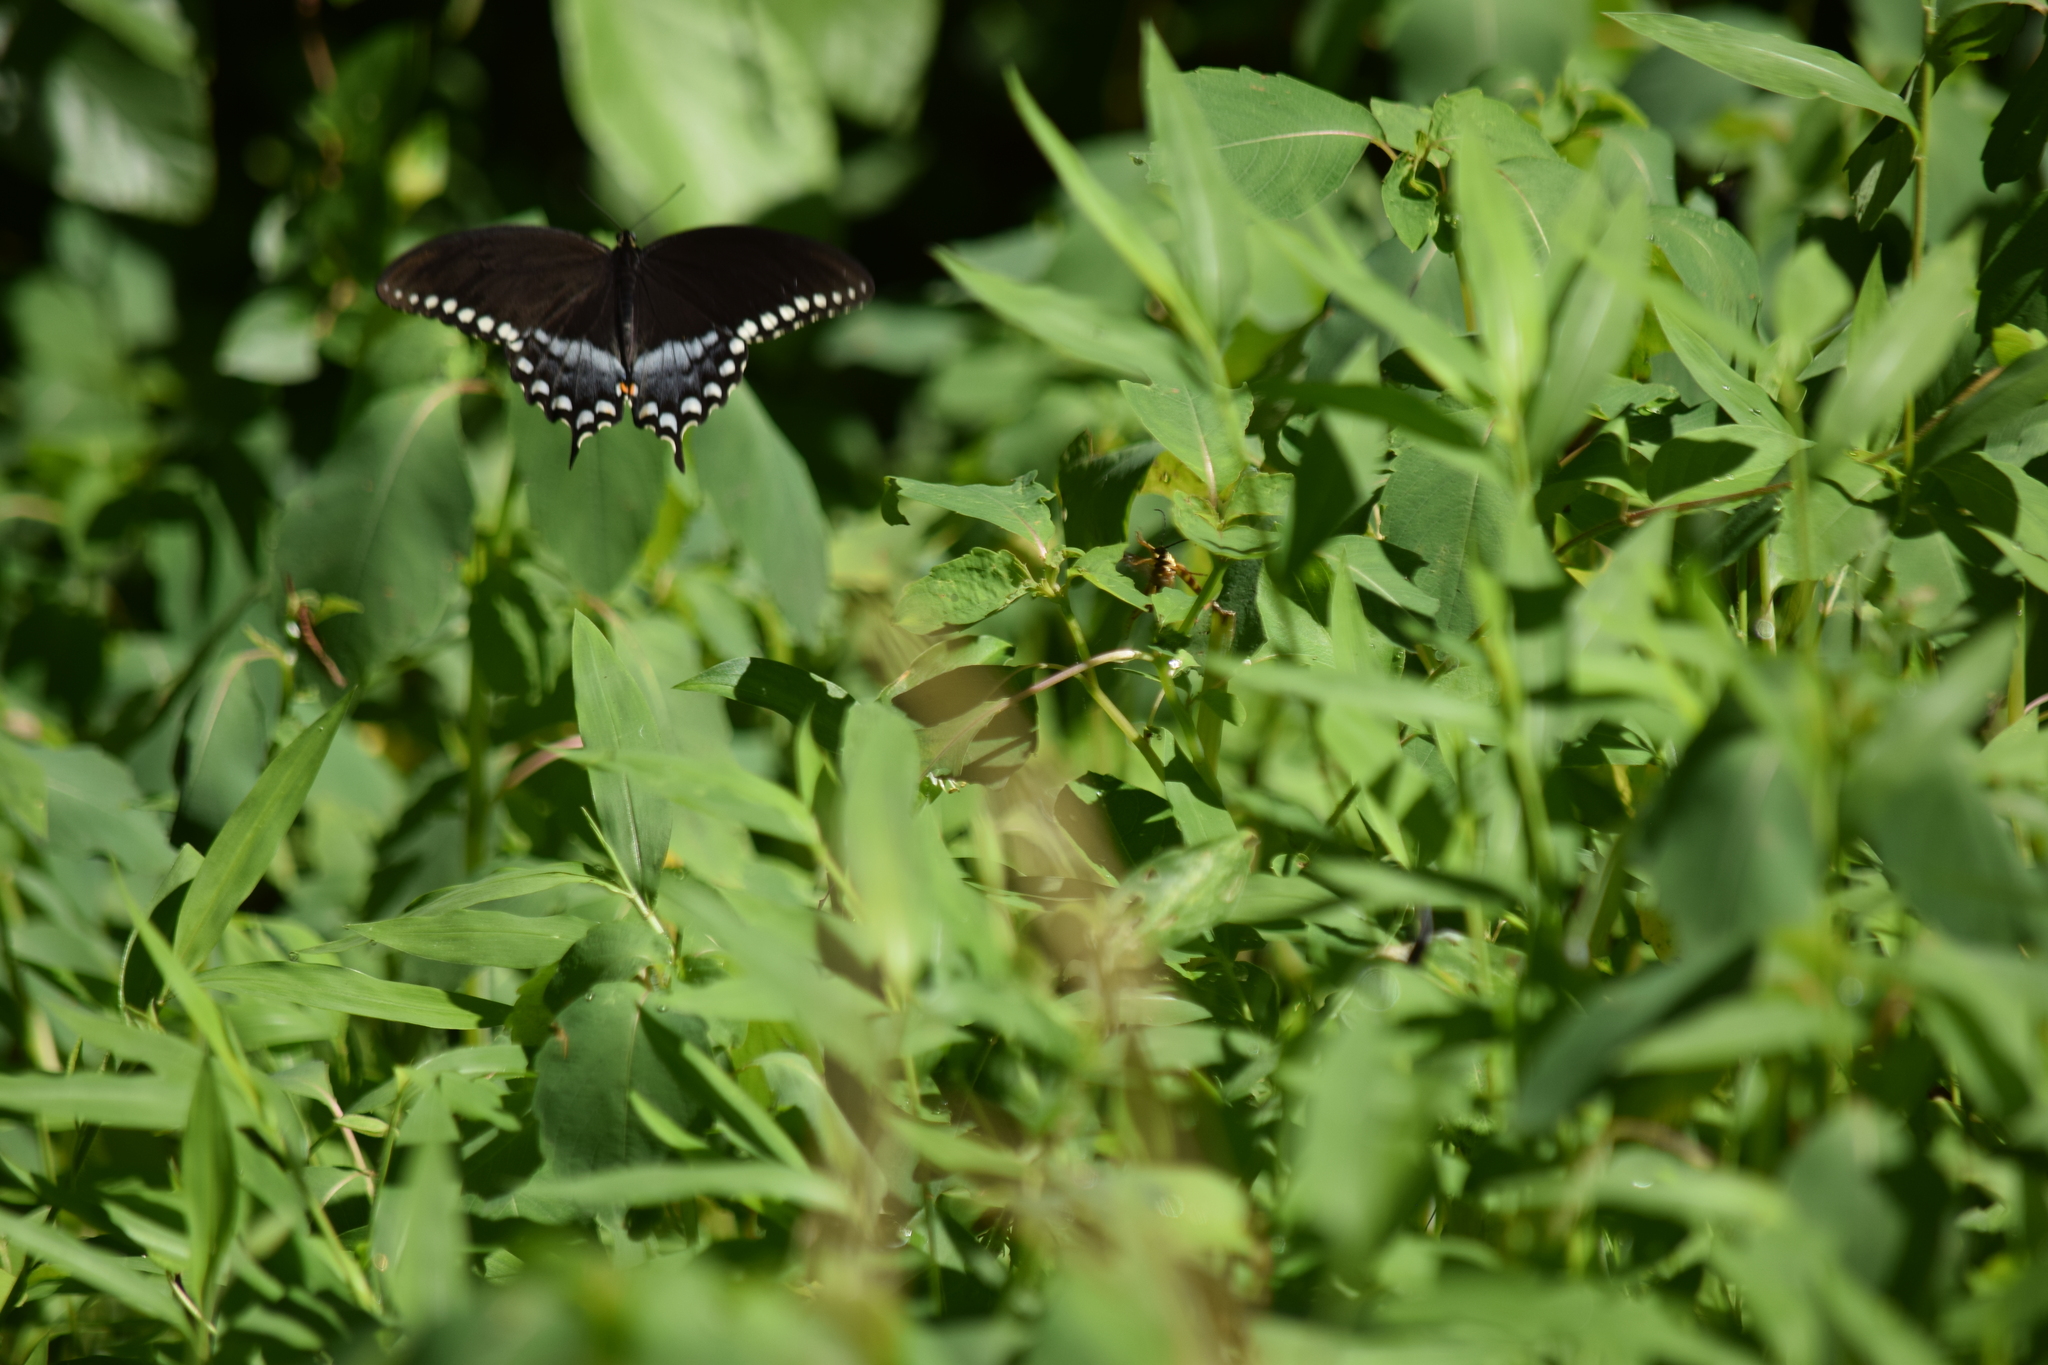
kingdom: Animalia
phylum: Arthropoda
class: Insecta
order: Lepidoptera
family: Papilionidae
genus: Papilio
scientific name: Papilio troilus
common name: Spicebush swallowtail
